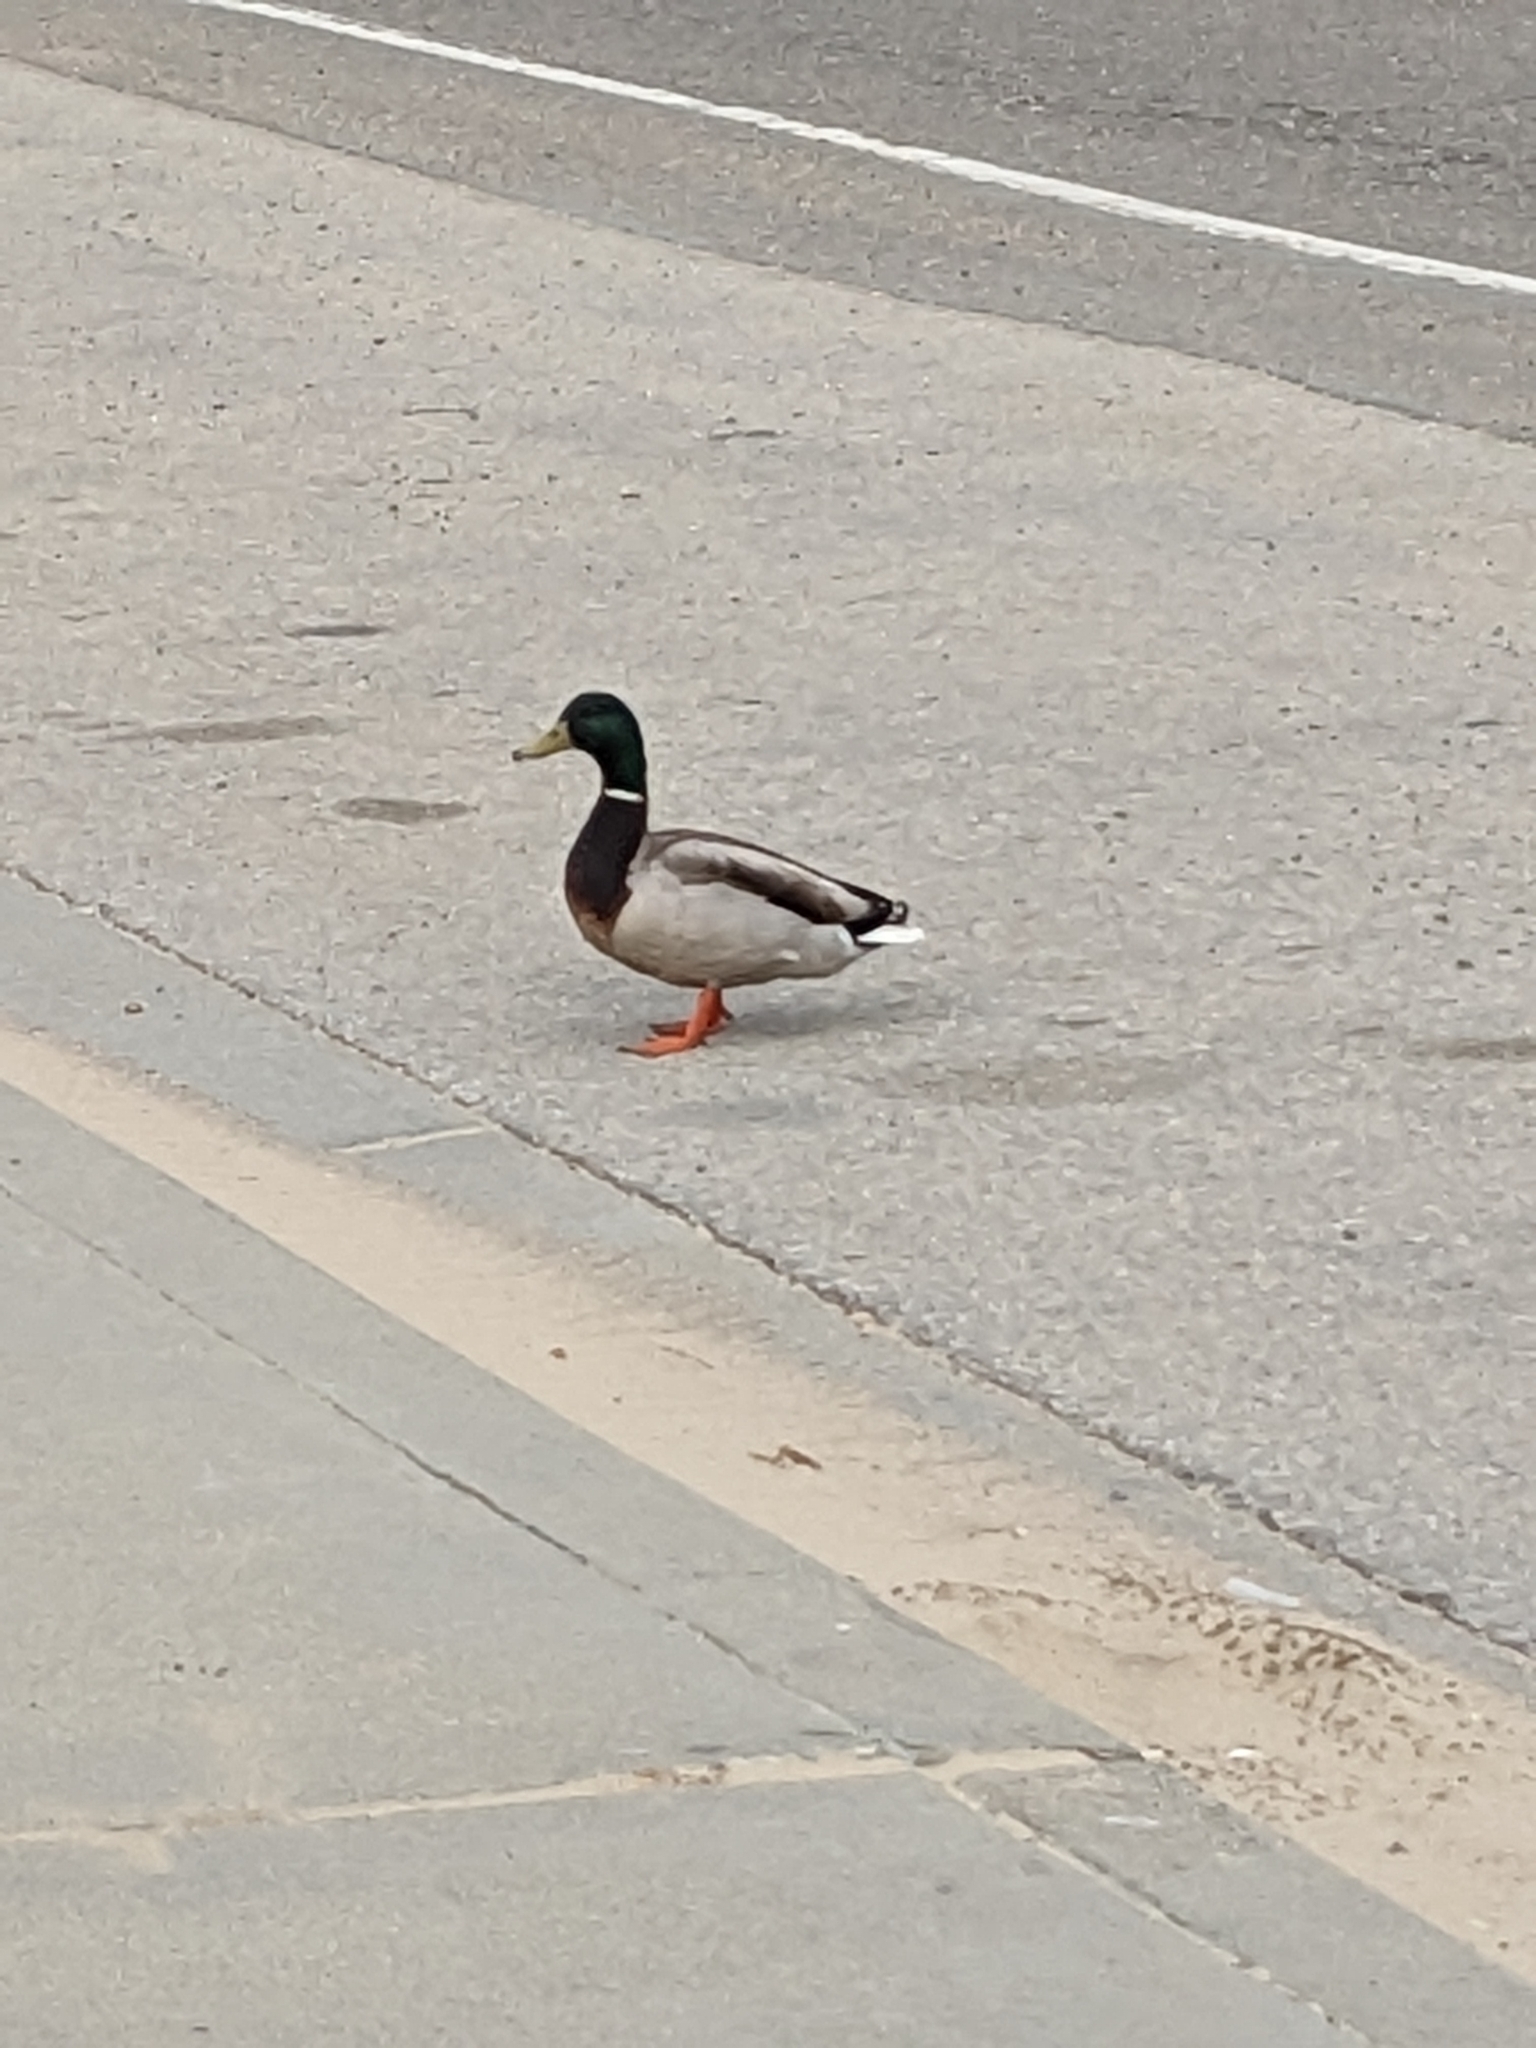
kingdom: Animalia
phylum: Chordata
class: Aves
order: Anseriformes
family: Anatidae
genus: Anas
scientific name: Anas platyrhynchos
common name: Mallard
